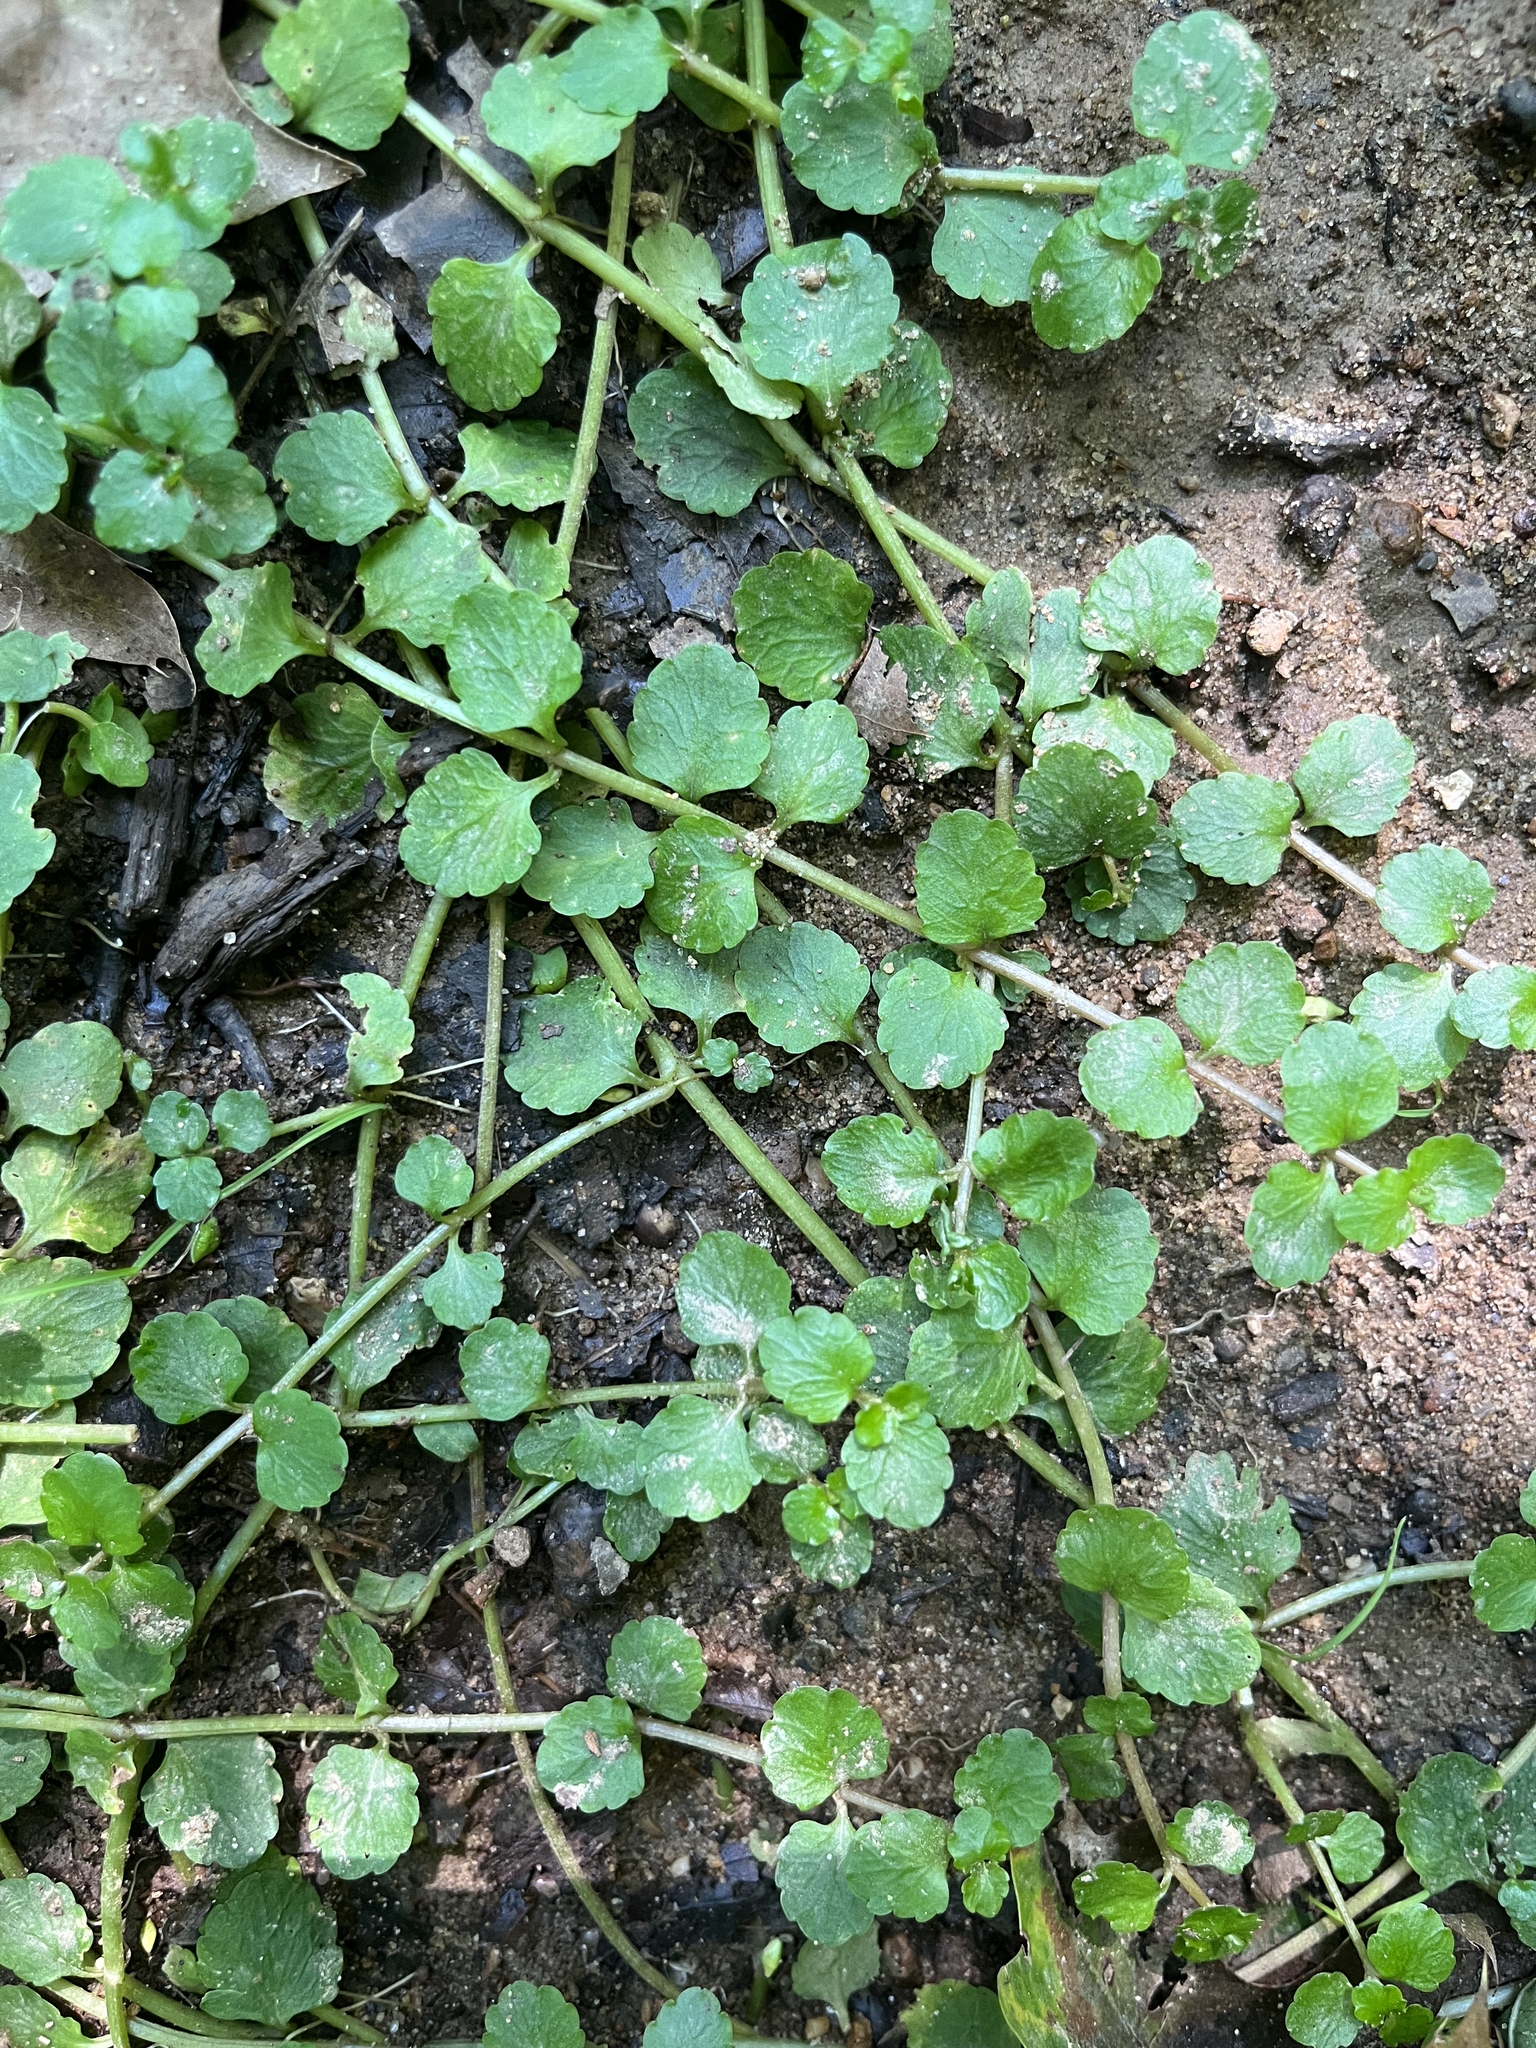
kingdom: Plantae
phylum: Tracheophyta
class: Magnoliopsida
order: Saxifragales
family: Saxifragaceae
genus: Chrysosplenium
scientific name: Chrysosplenium americanum
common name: American golden-saxifrage
